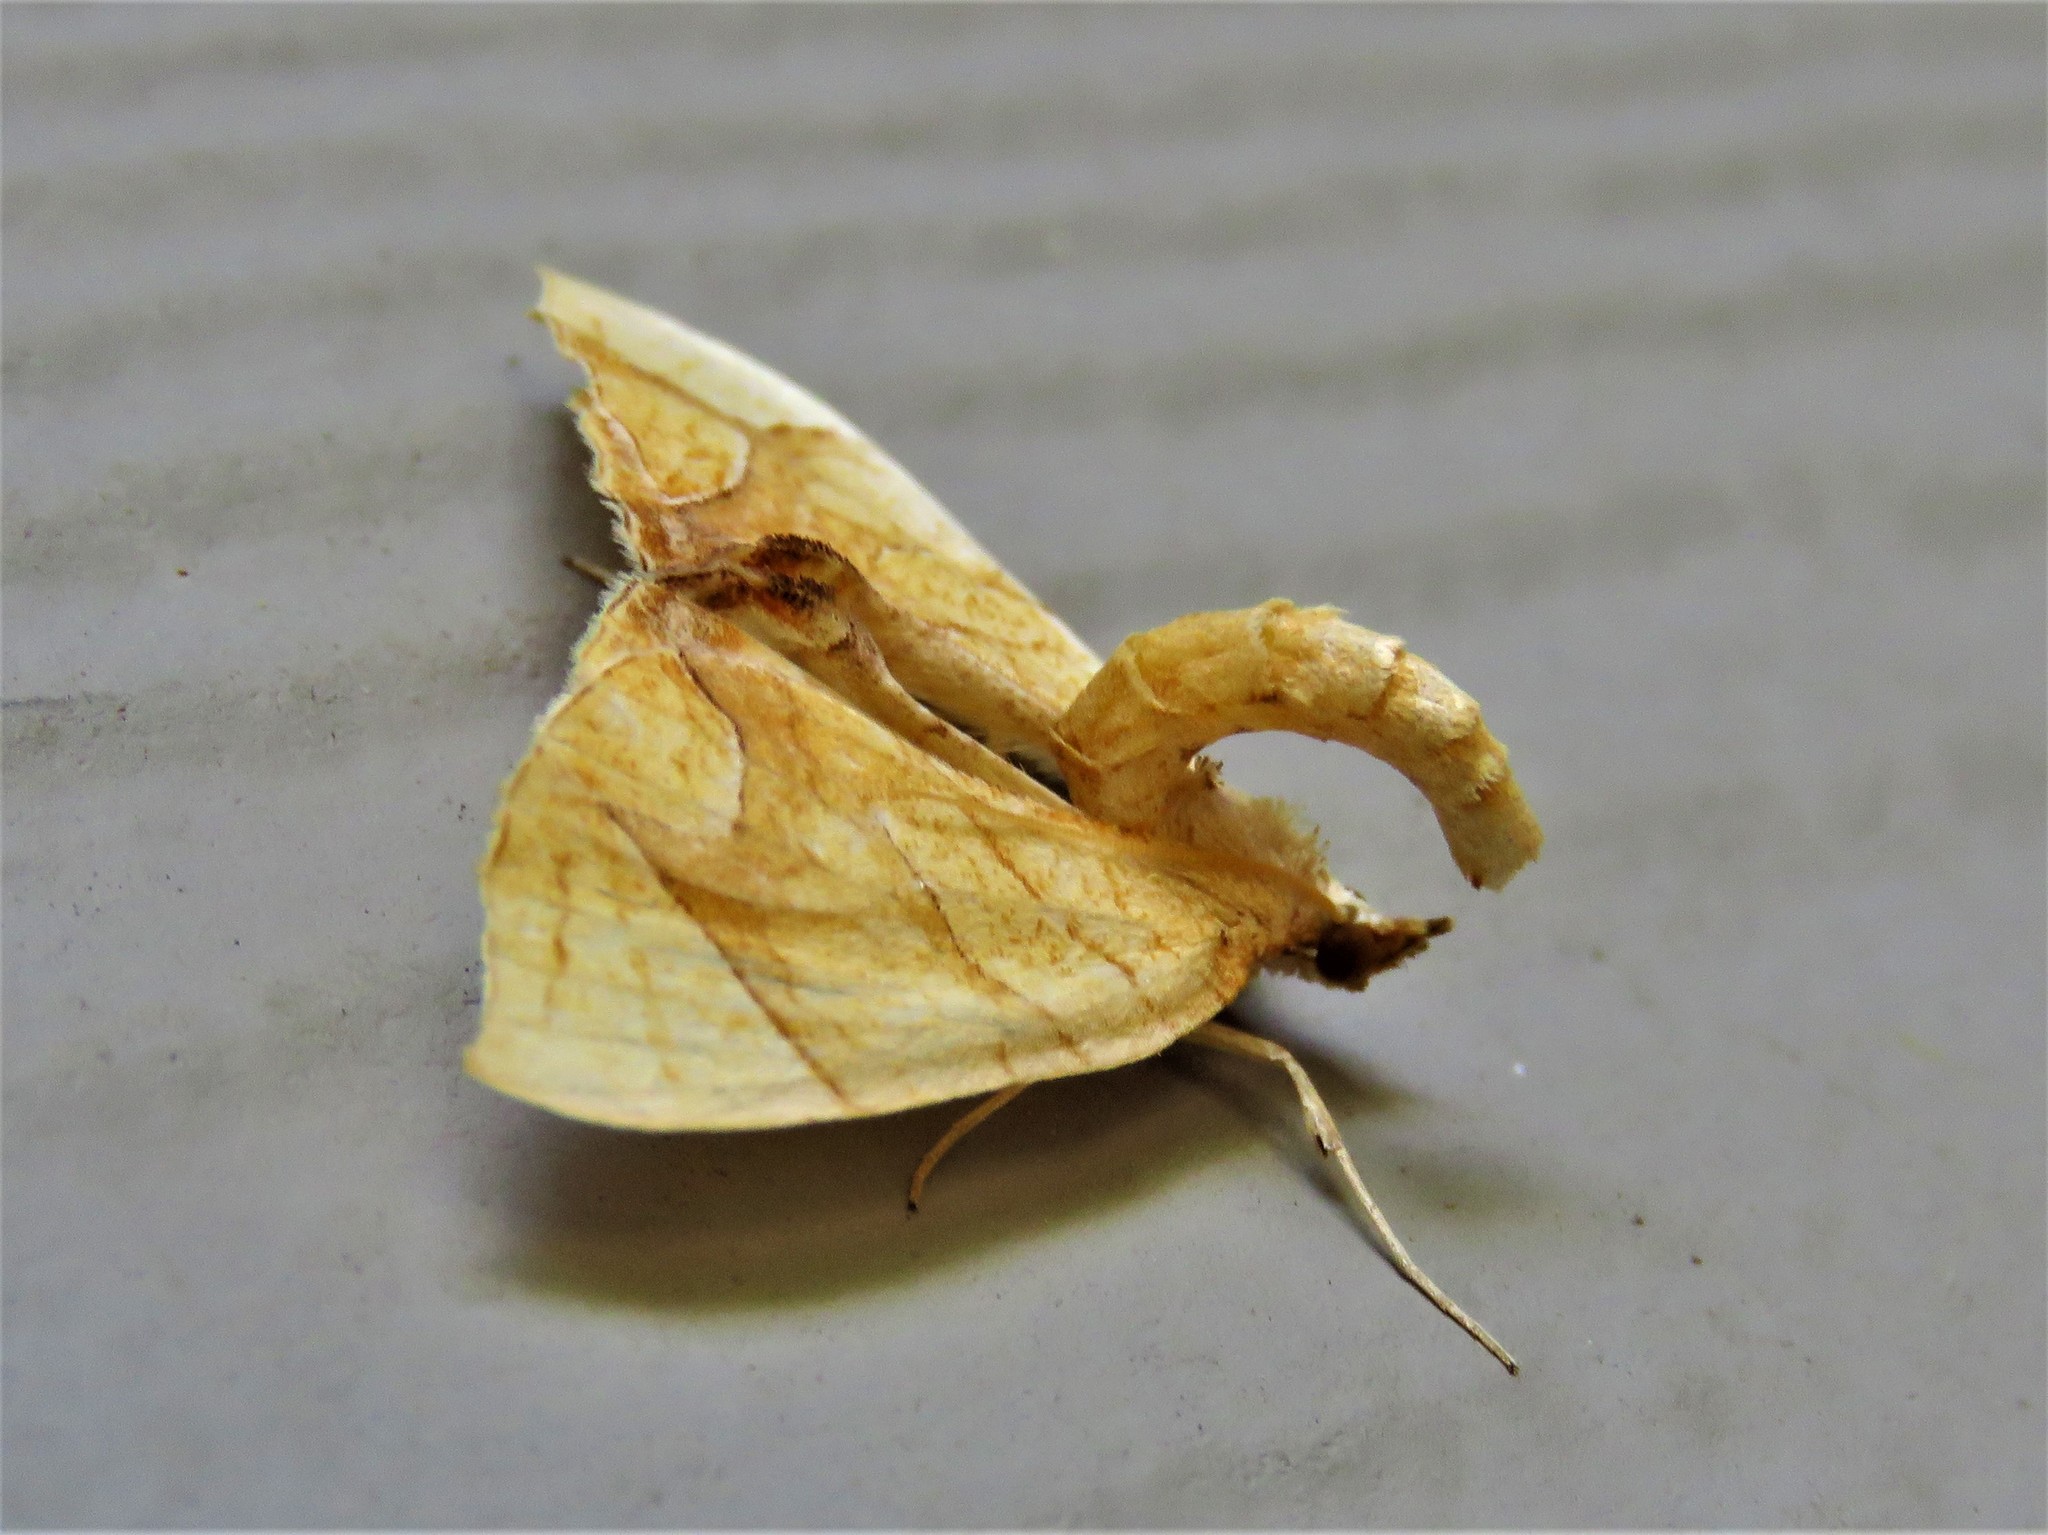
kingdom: Animalia
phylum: Arthropoda
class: Insecta
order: Lepidoptera
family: Geometridae
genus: Eulithis
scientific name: Eulithis
